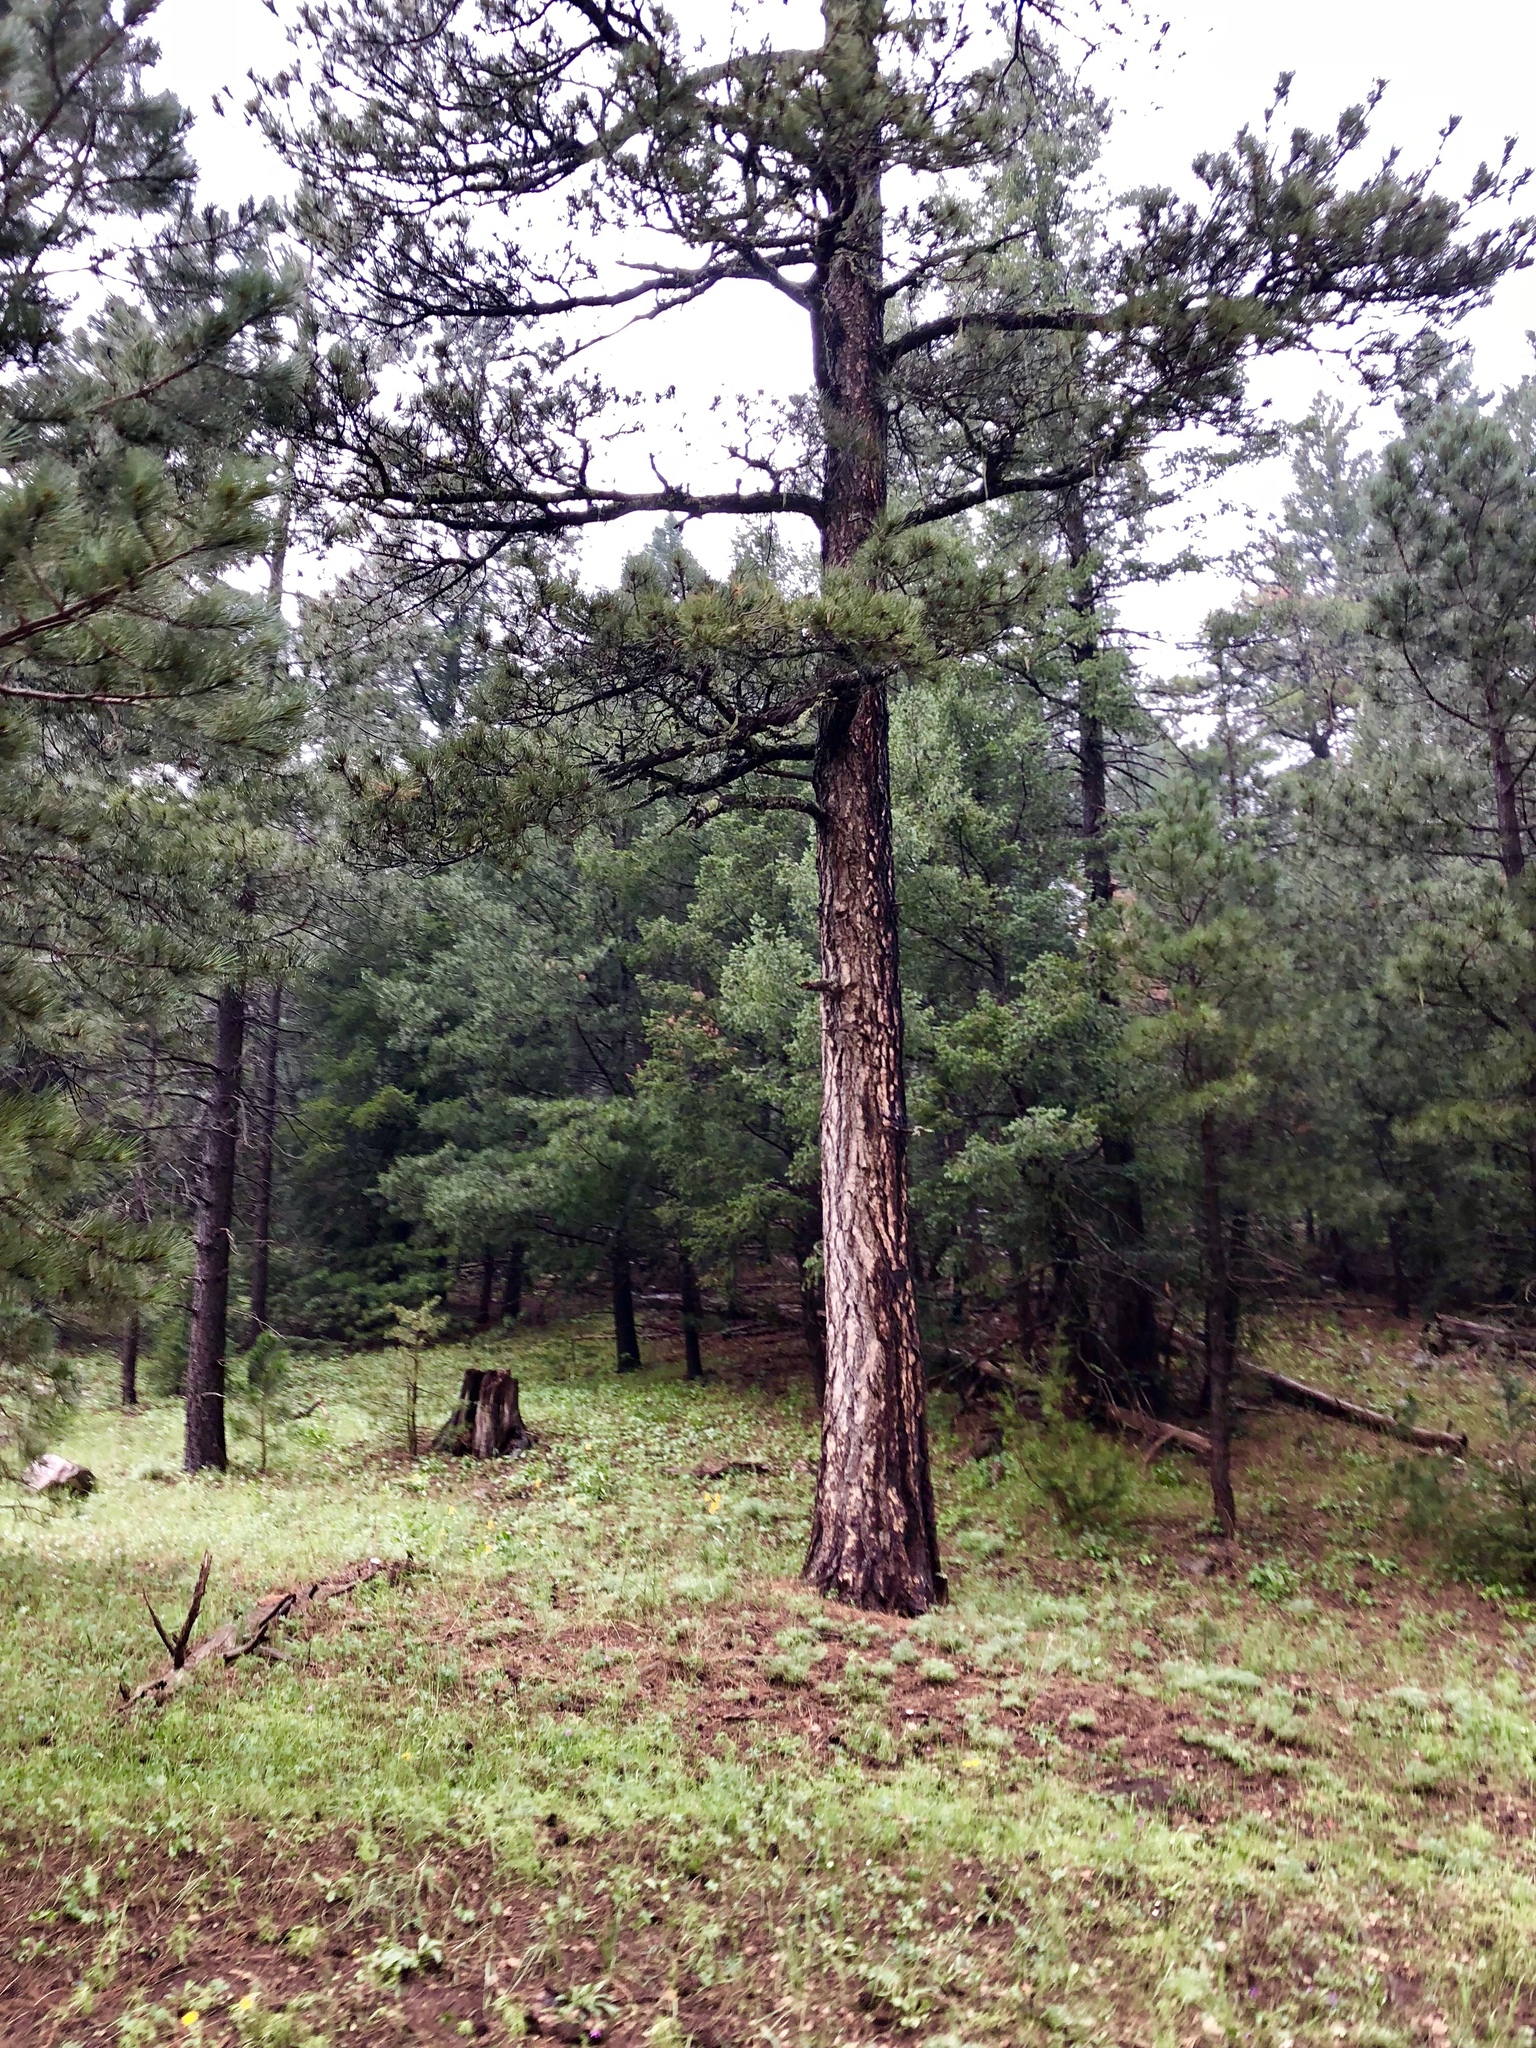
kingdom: Plantae
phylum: Tracheophyta
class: Pinopsida
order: Pinales
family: Pinaceae
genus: Pinus
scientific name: Pinus ponderosa
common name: Western yellow-pine
